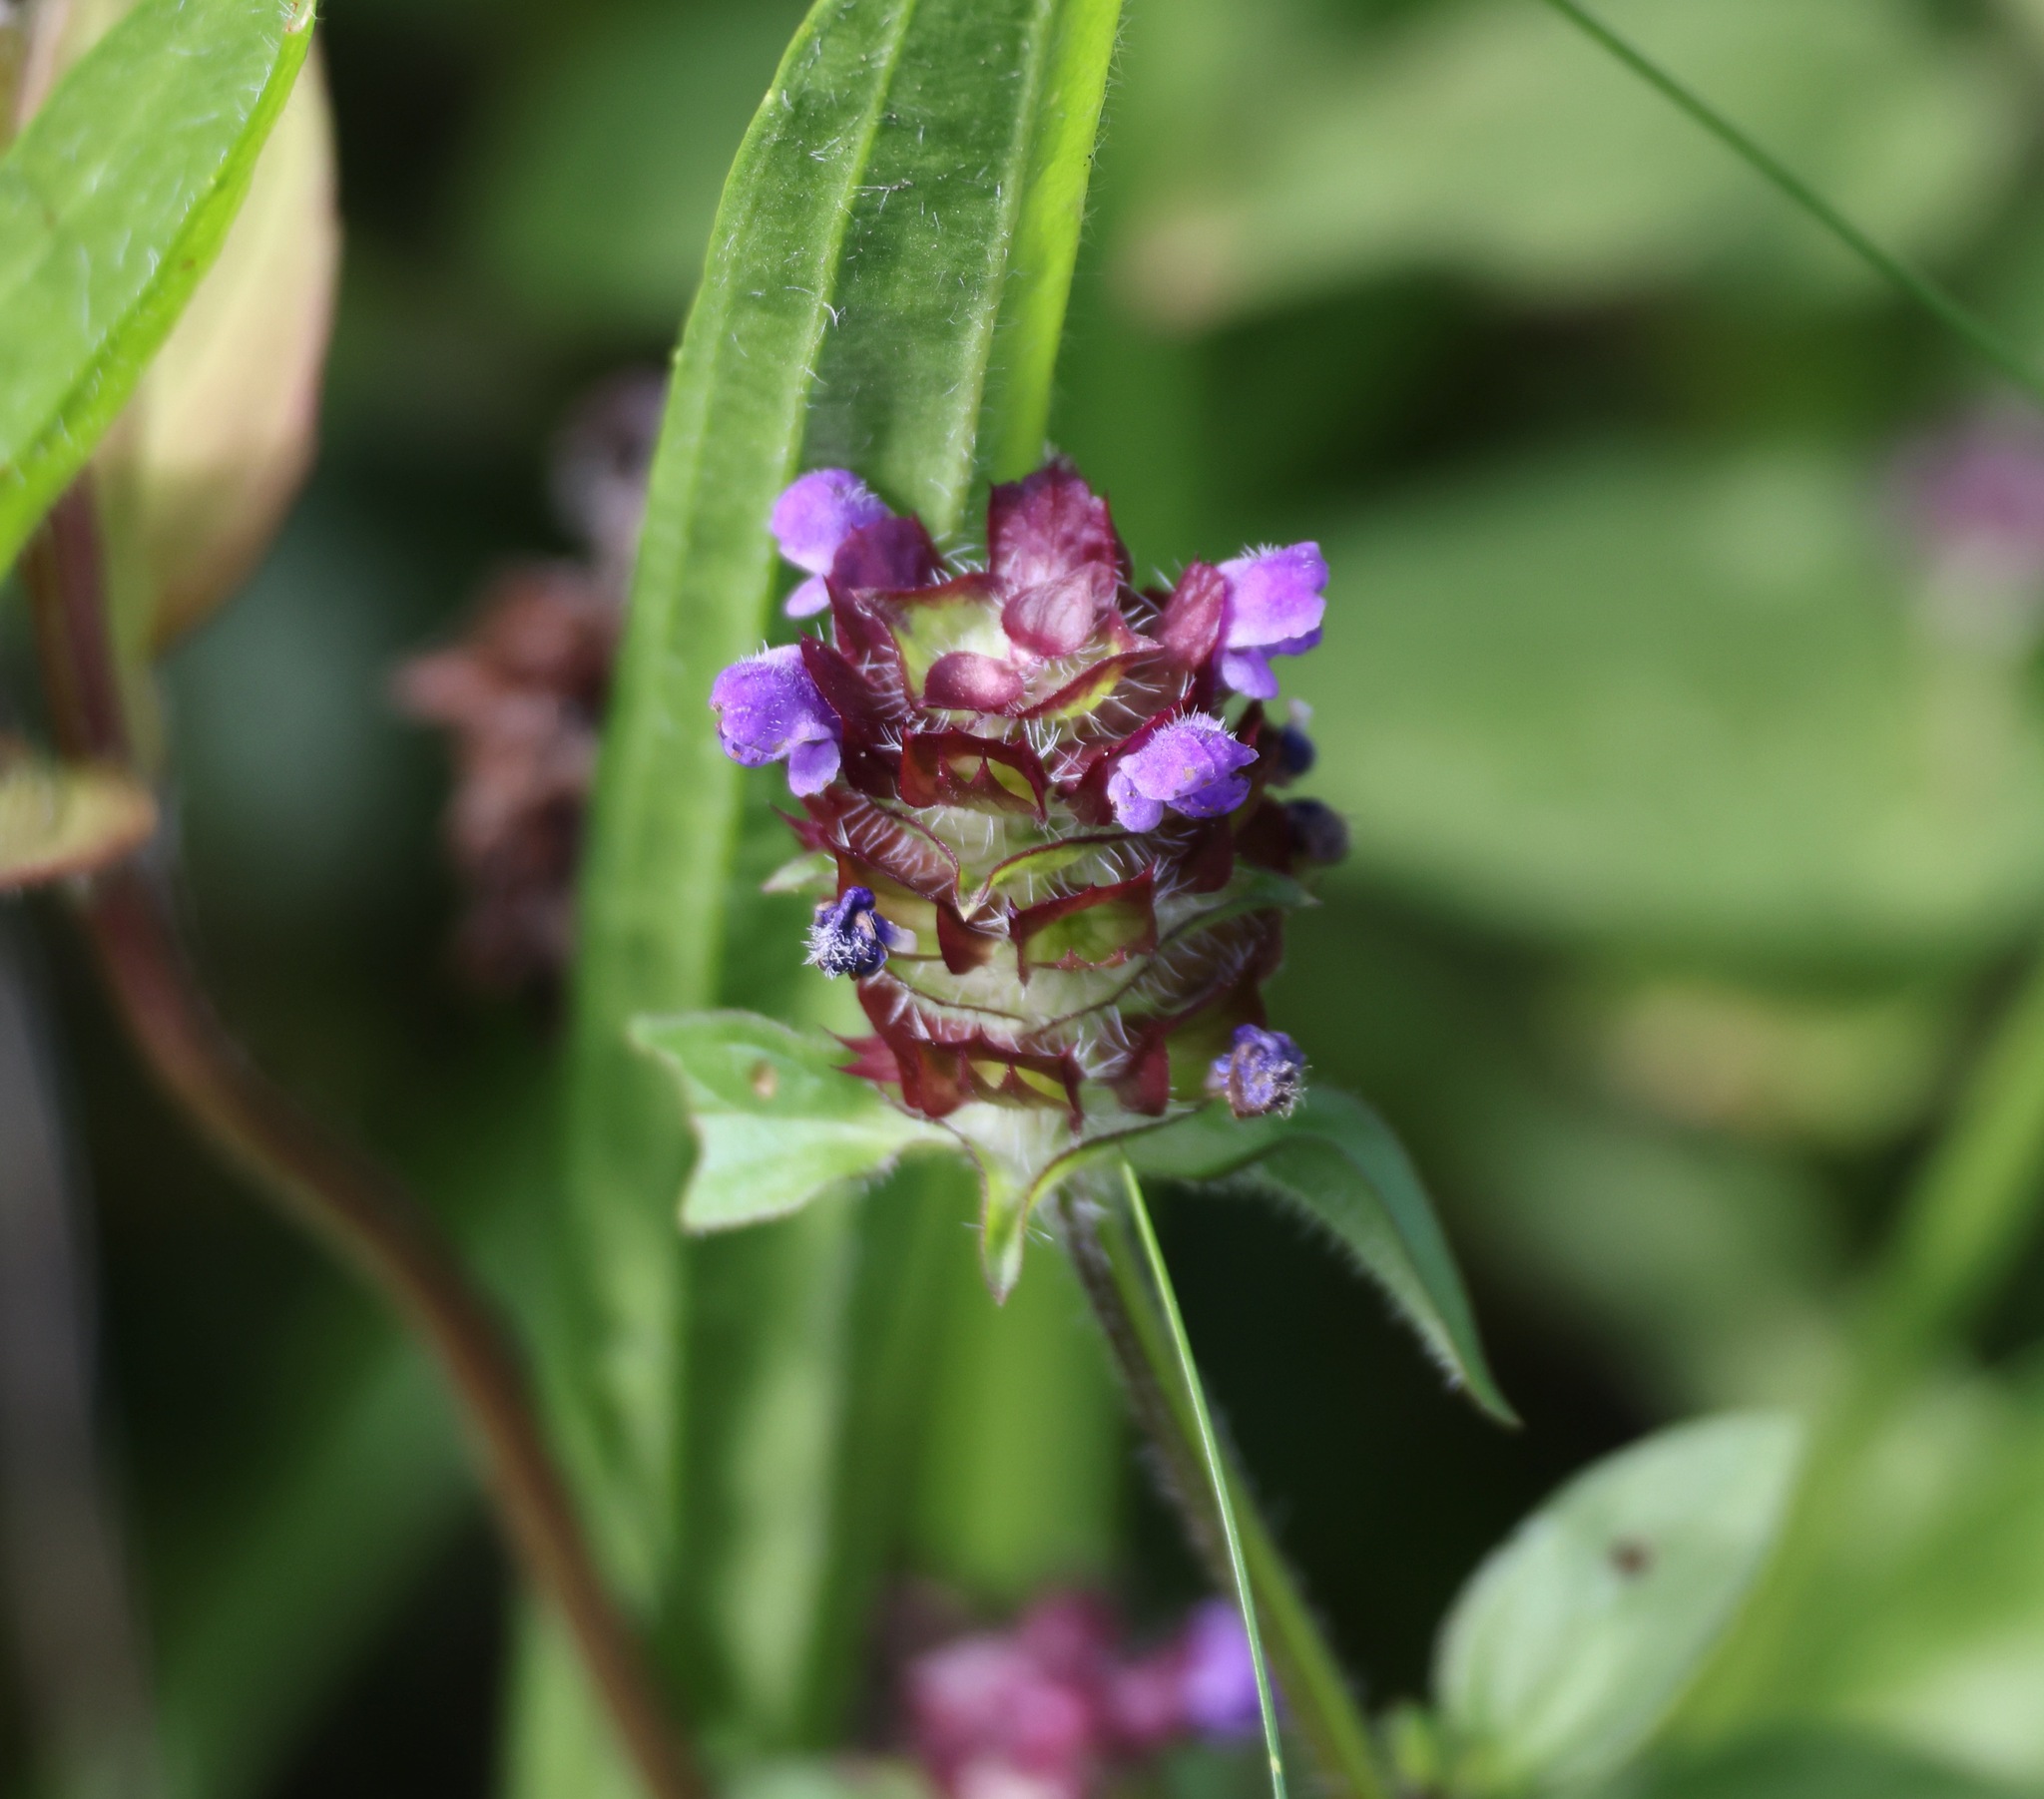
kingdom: Plantae
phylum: Tracheophyta
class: Magnoliopsida
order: Lamiales
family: Lamiaceae
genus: Prunella
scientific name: Prunella vulgaris
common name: Heal-all
